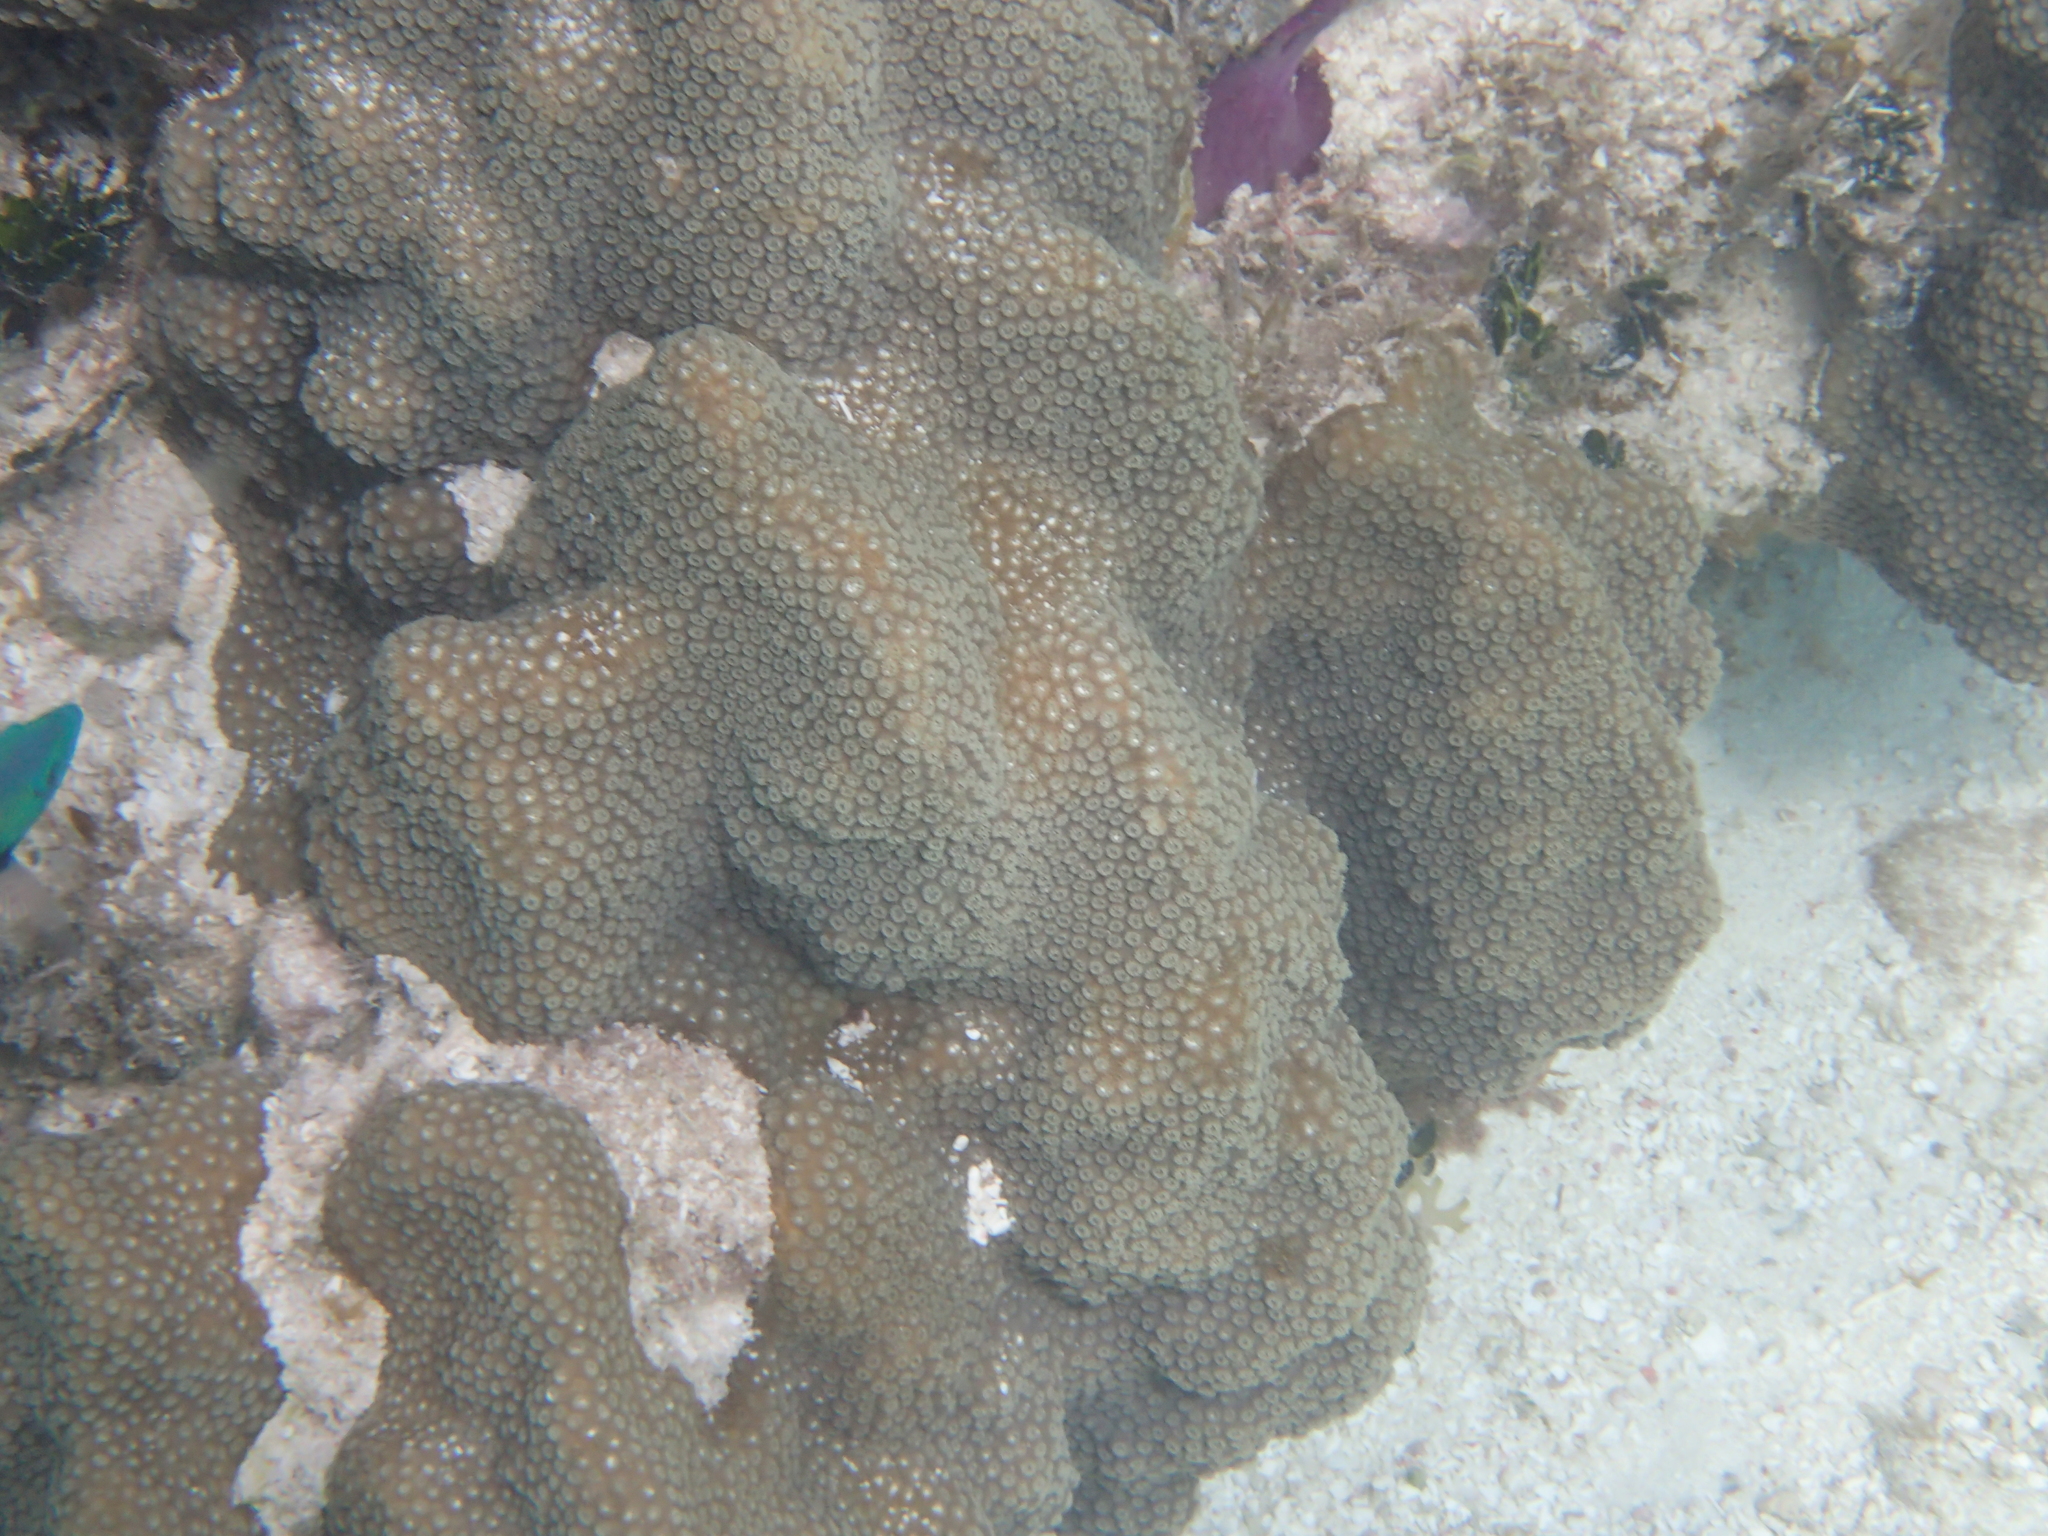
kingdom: Animalia
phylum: Cnidaria
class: Anthozoa
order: Scleractinia
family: Merulinidae
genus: Orbicella
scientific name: Orbicella faveolata
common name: Mountainous star coral
